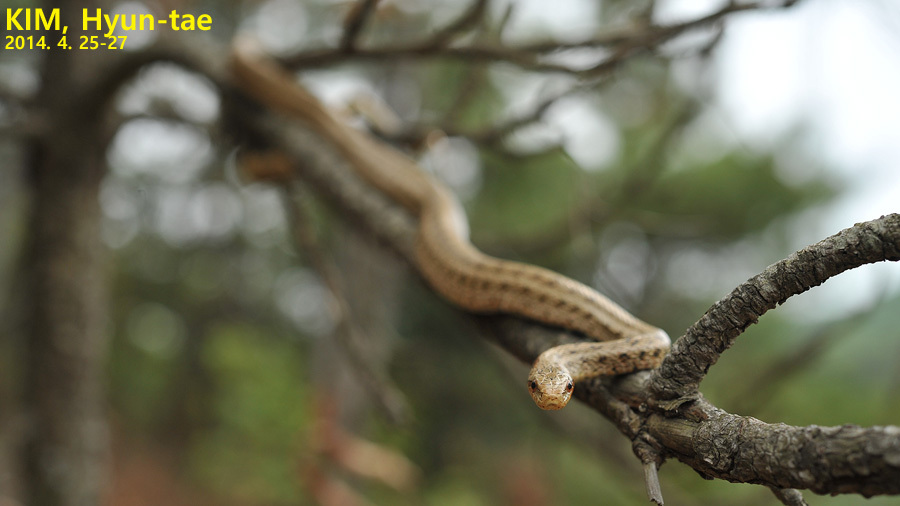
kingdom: Animalia
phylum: Chordata
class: Squamata
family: Colubridae
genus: Elaphe
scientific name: Elaphe dione
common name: Dione ratsnake
